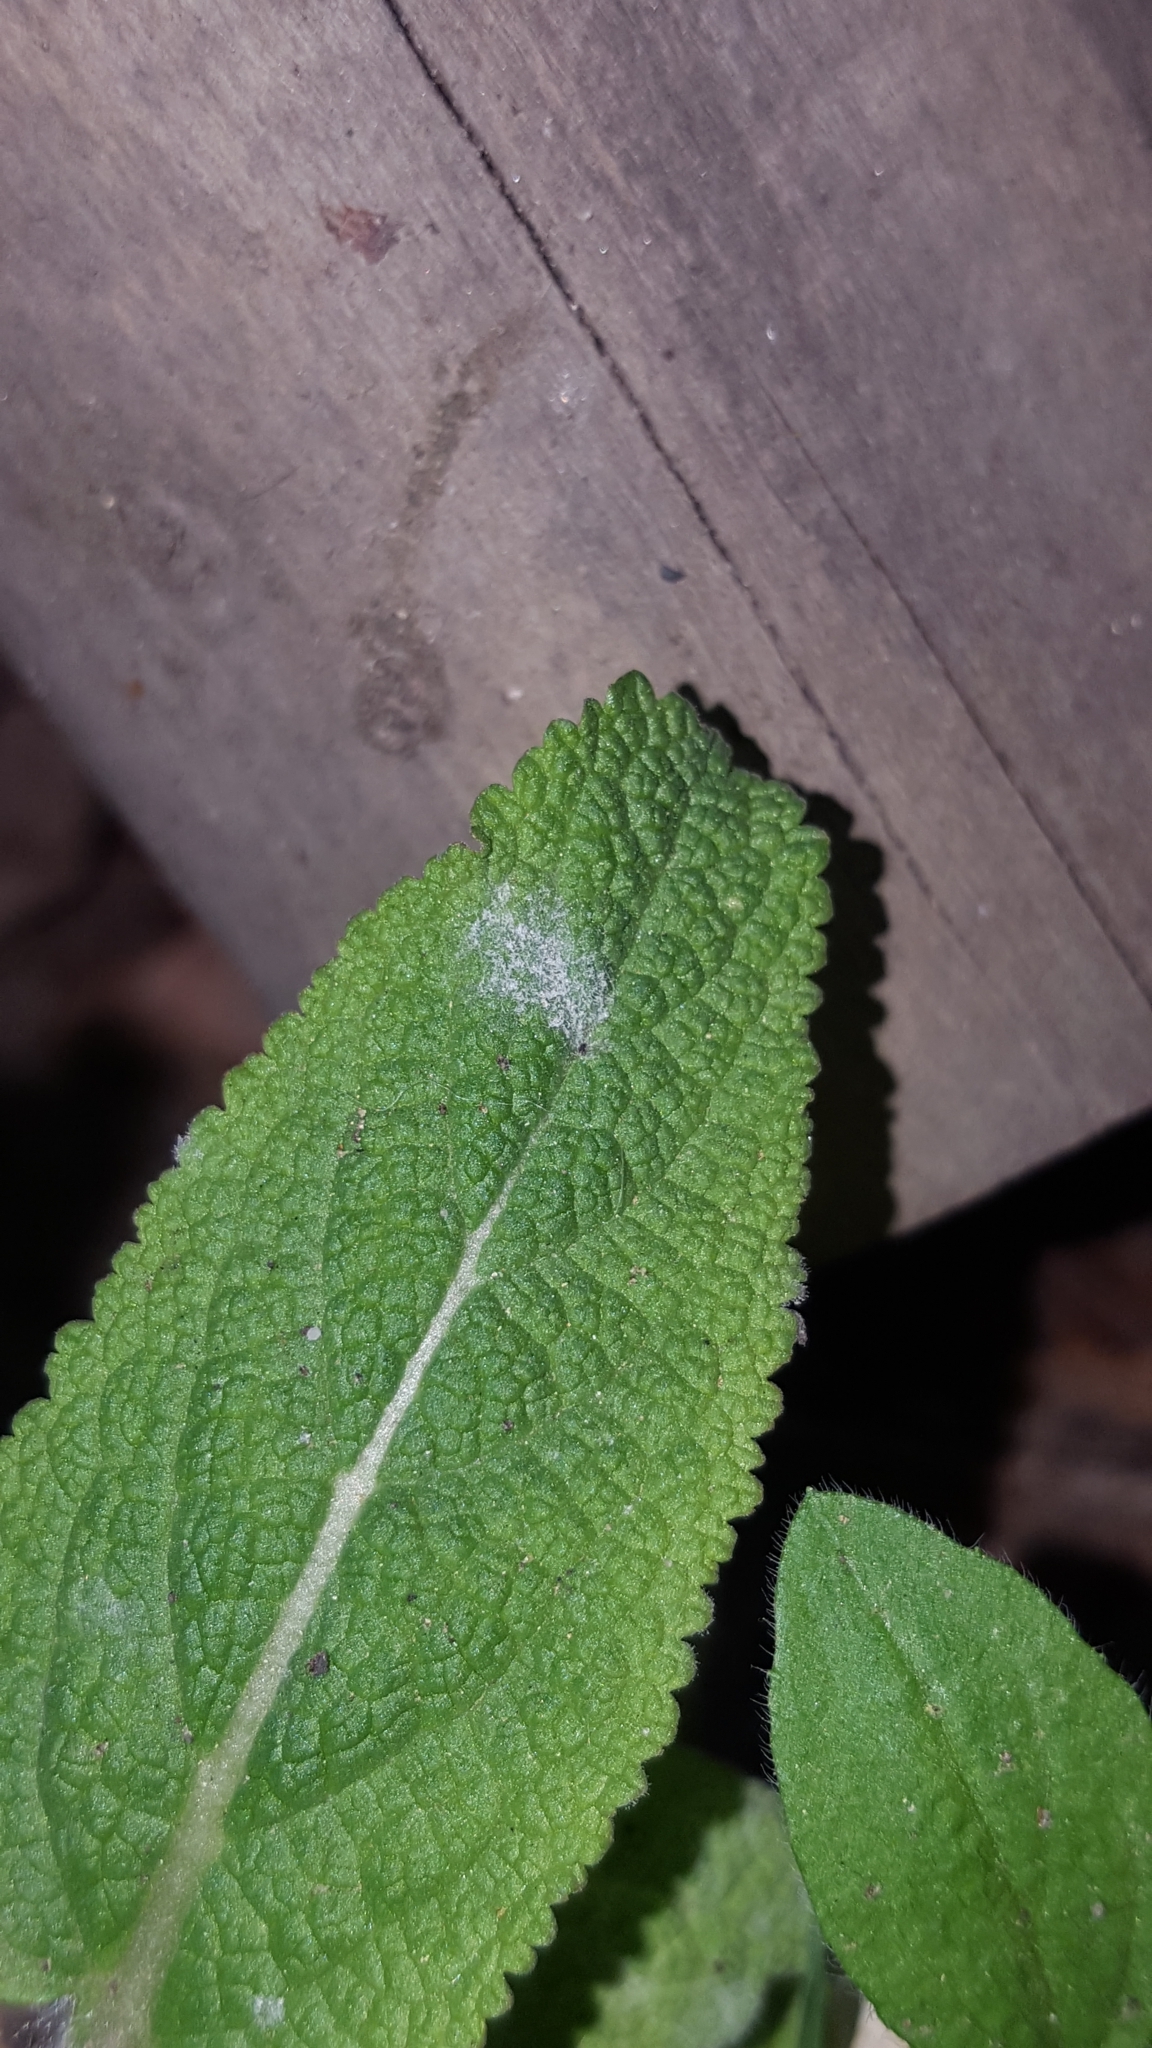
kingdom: Fungi
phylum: Ascomycota
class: Leotiomycetes
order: Helotiales
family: Erysiphaceae
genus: Golovinomyces
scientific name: Golovinomyces neosalviae
